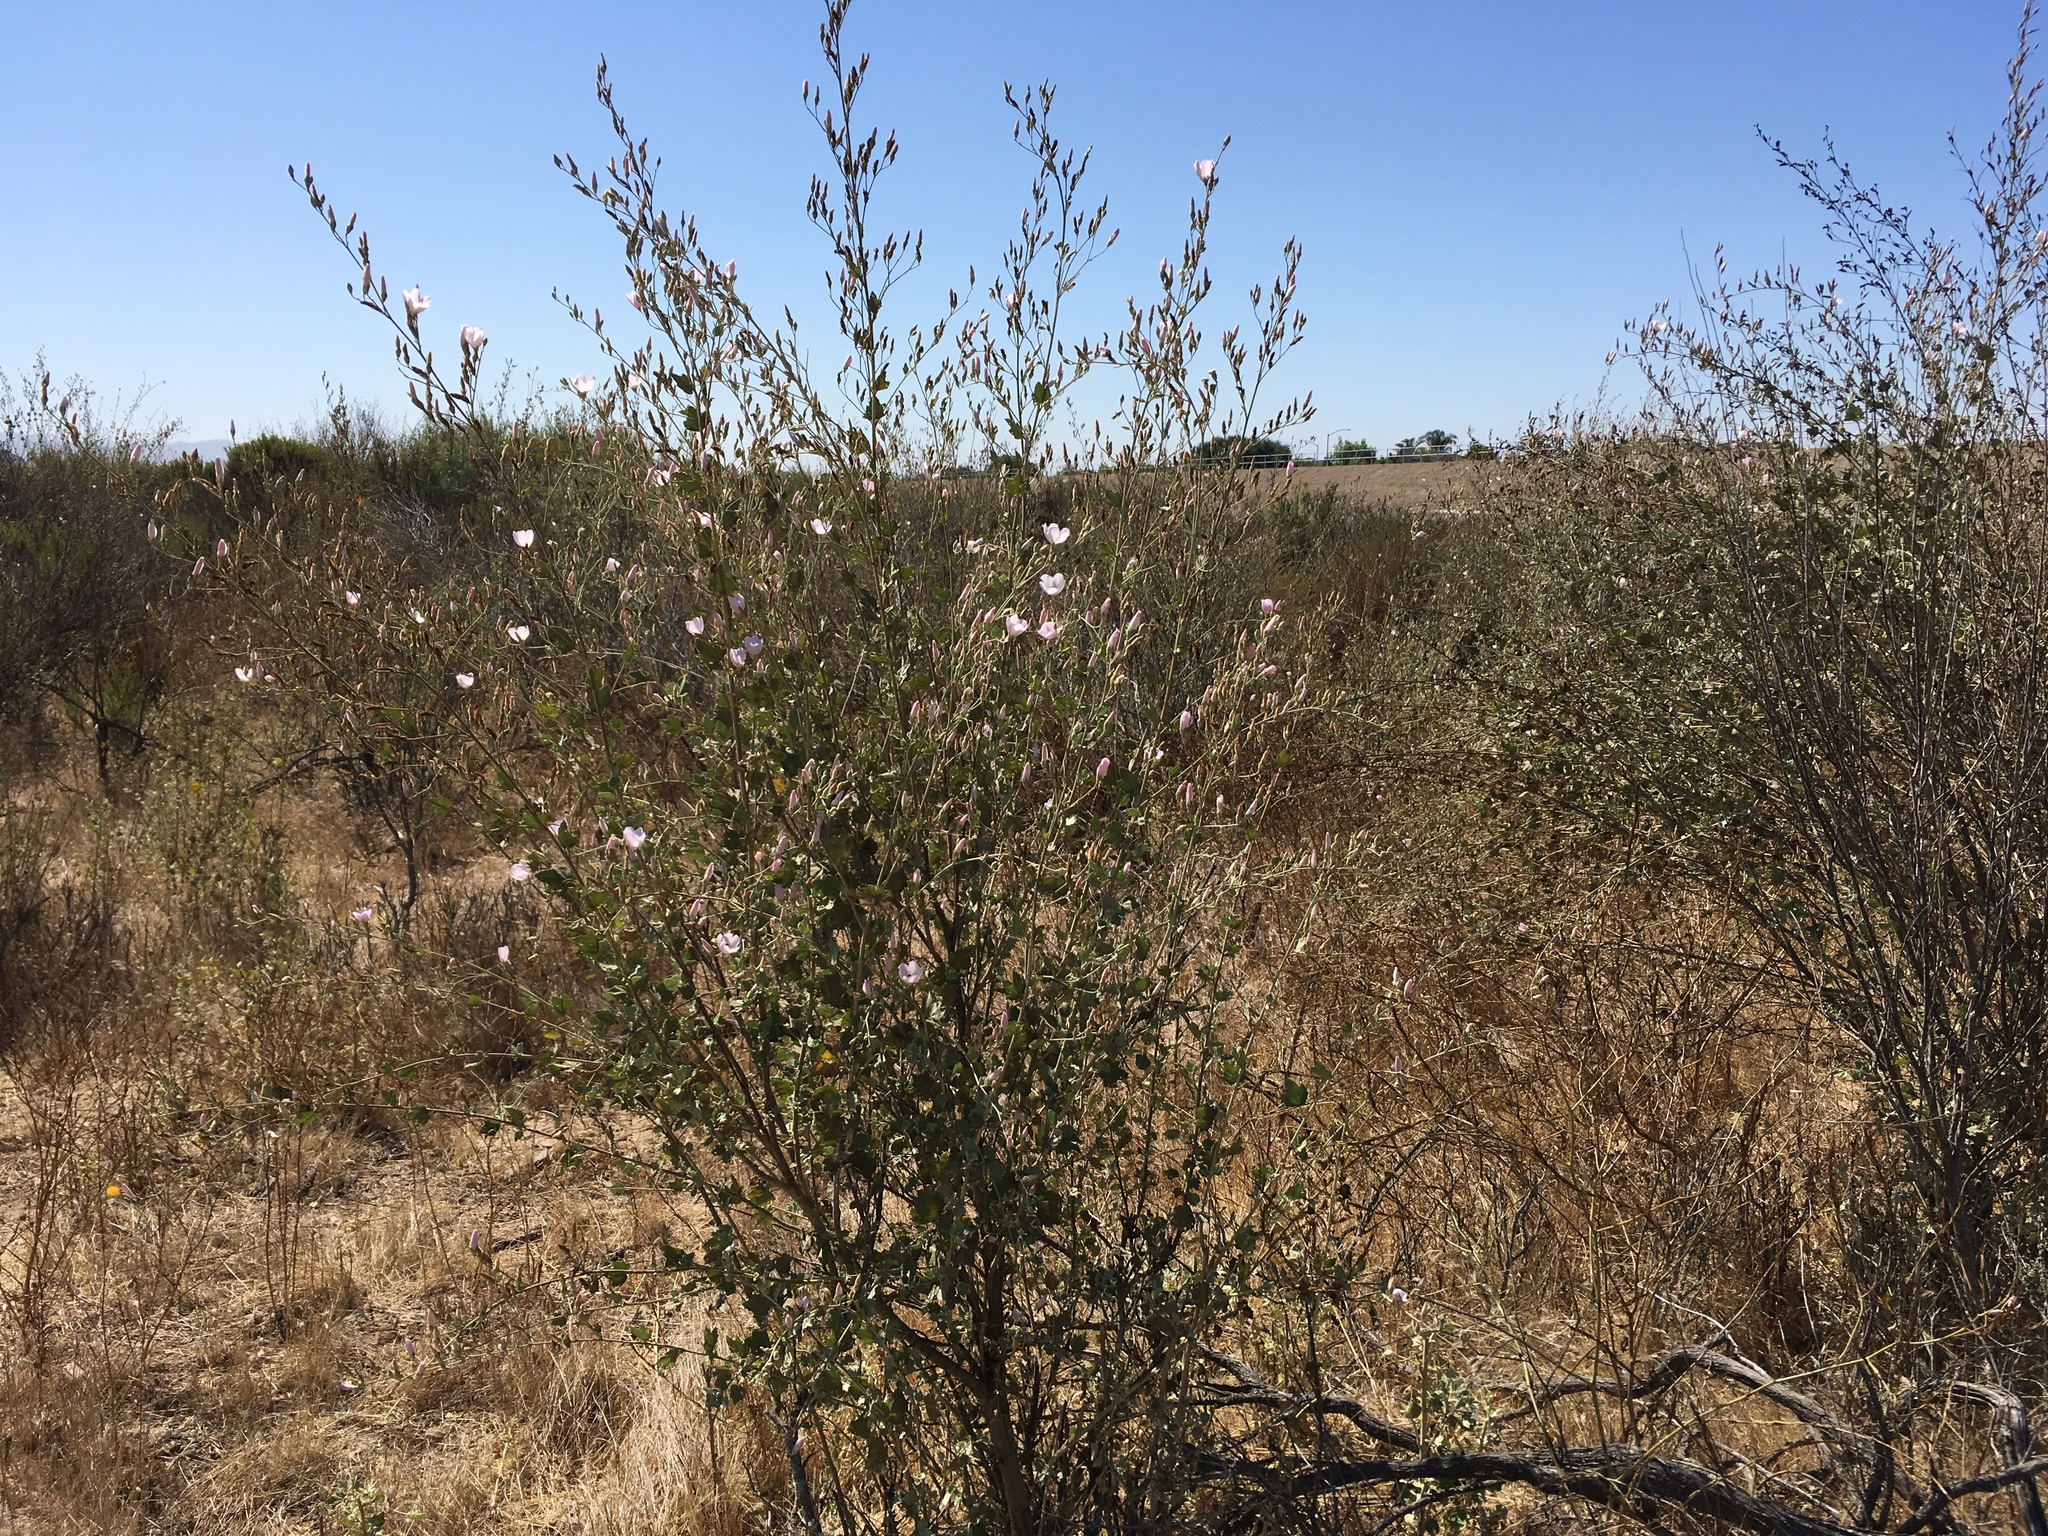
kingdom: Plantae
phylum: Tracheophyta
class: Magnoliopsida
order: Malvales
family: Malvaceae
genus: Malacothamnus
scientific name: Malacothamnus fasciculatus
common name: Sant cruz island bush-mallow
